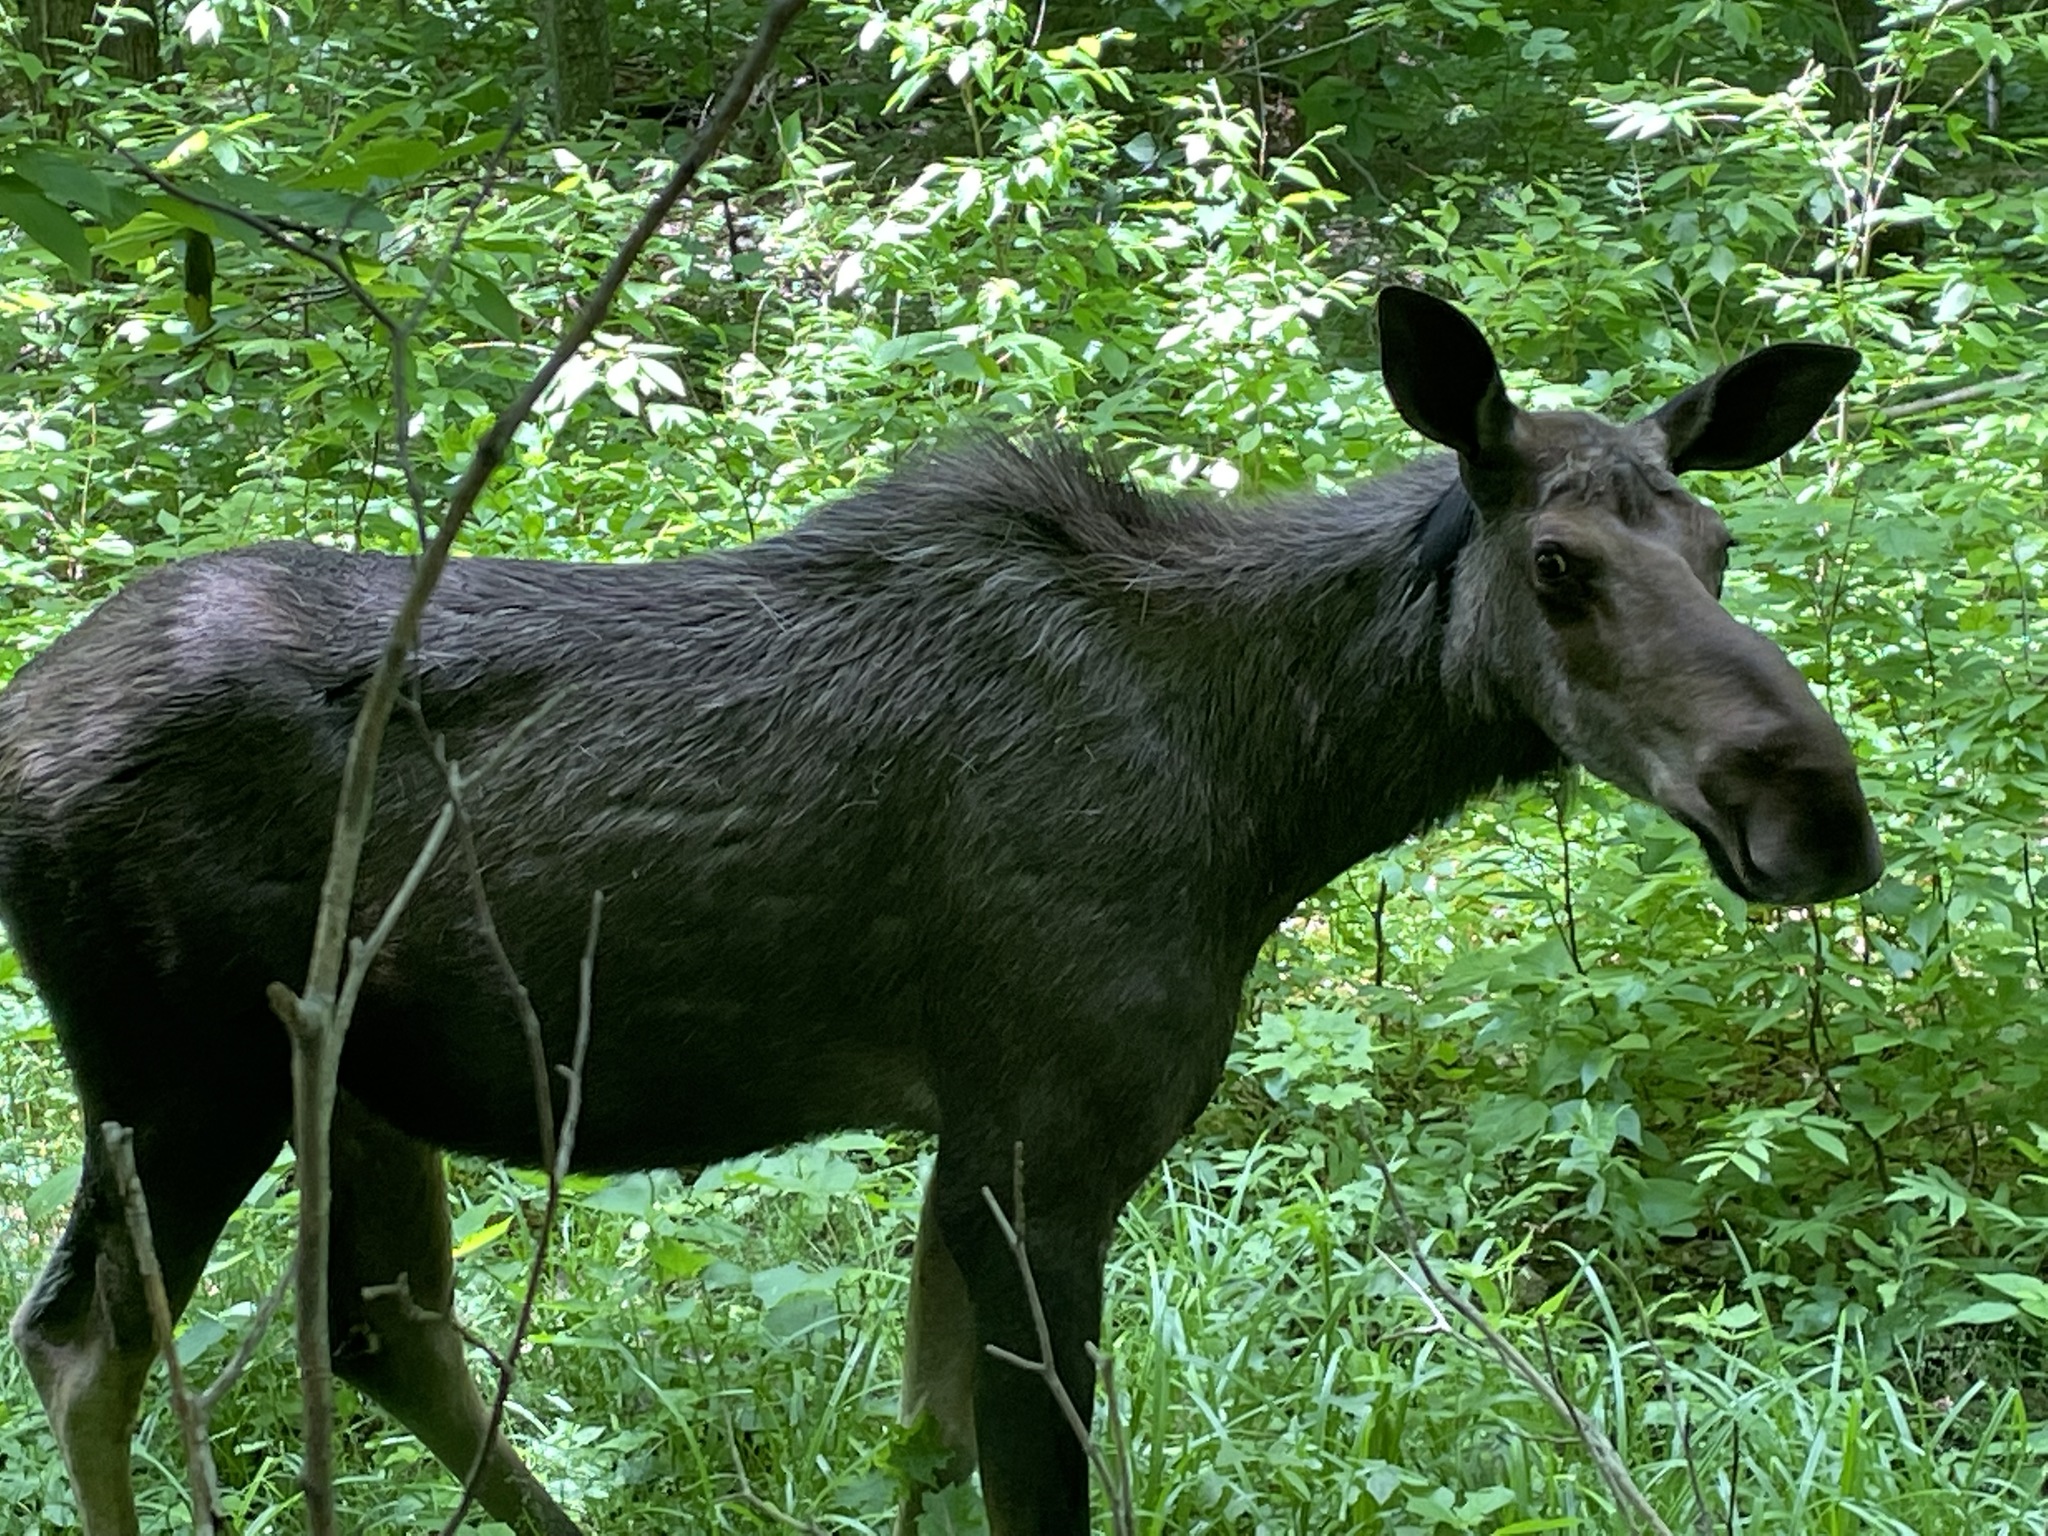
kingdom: Animalia
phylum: Chordata
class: Mammalia
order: Artiodactyla
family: Cervidae
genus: Alces
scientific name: Alces alces
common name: Moose
